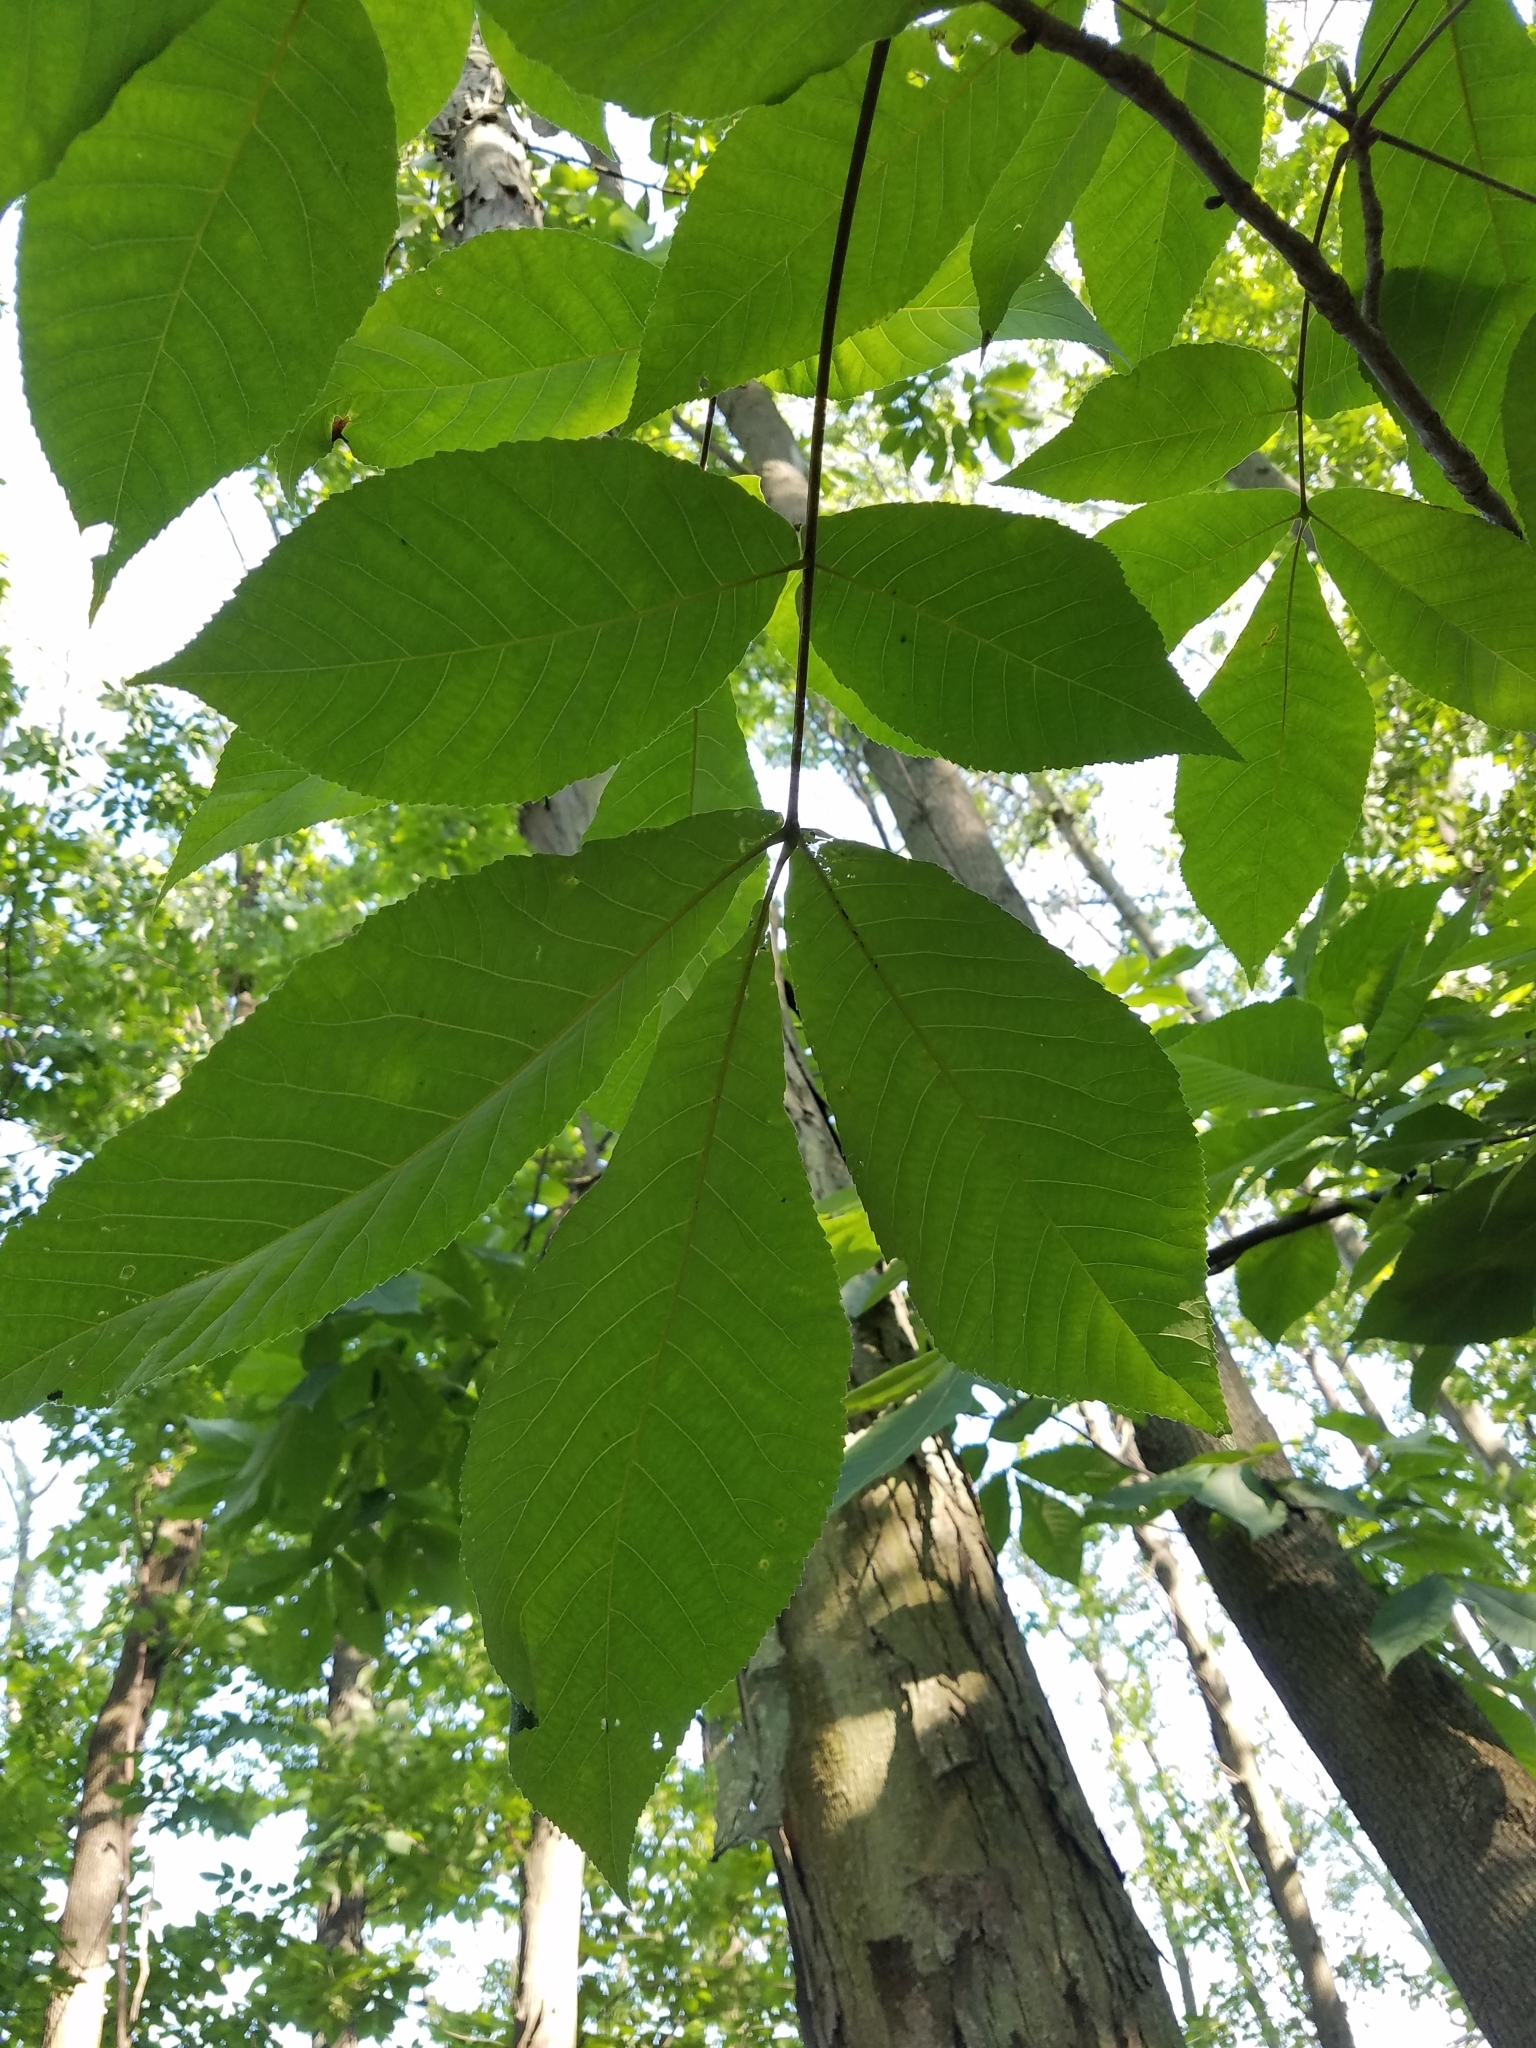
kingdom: Plantae
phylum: Tracheophyta
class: Magnoliopsida
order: Fagales
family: Juglandaceae
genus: Carya
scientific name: Carya ovata
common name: Shagbark hickory
